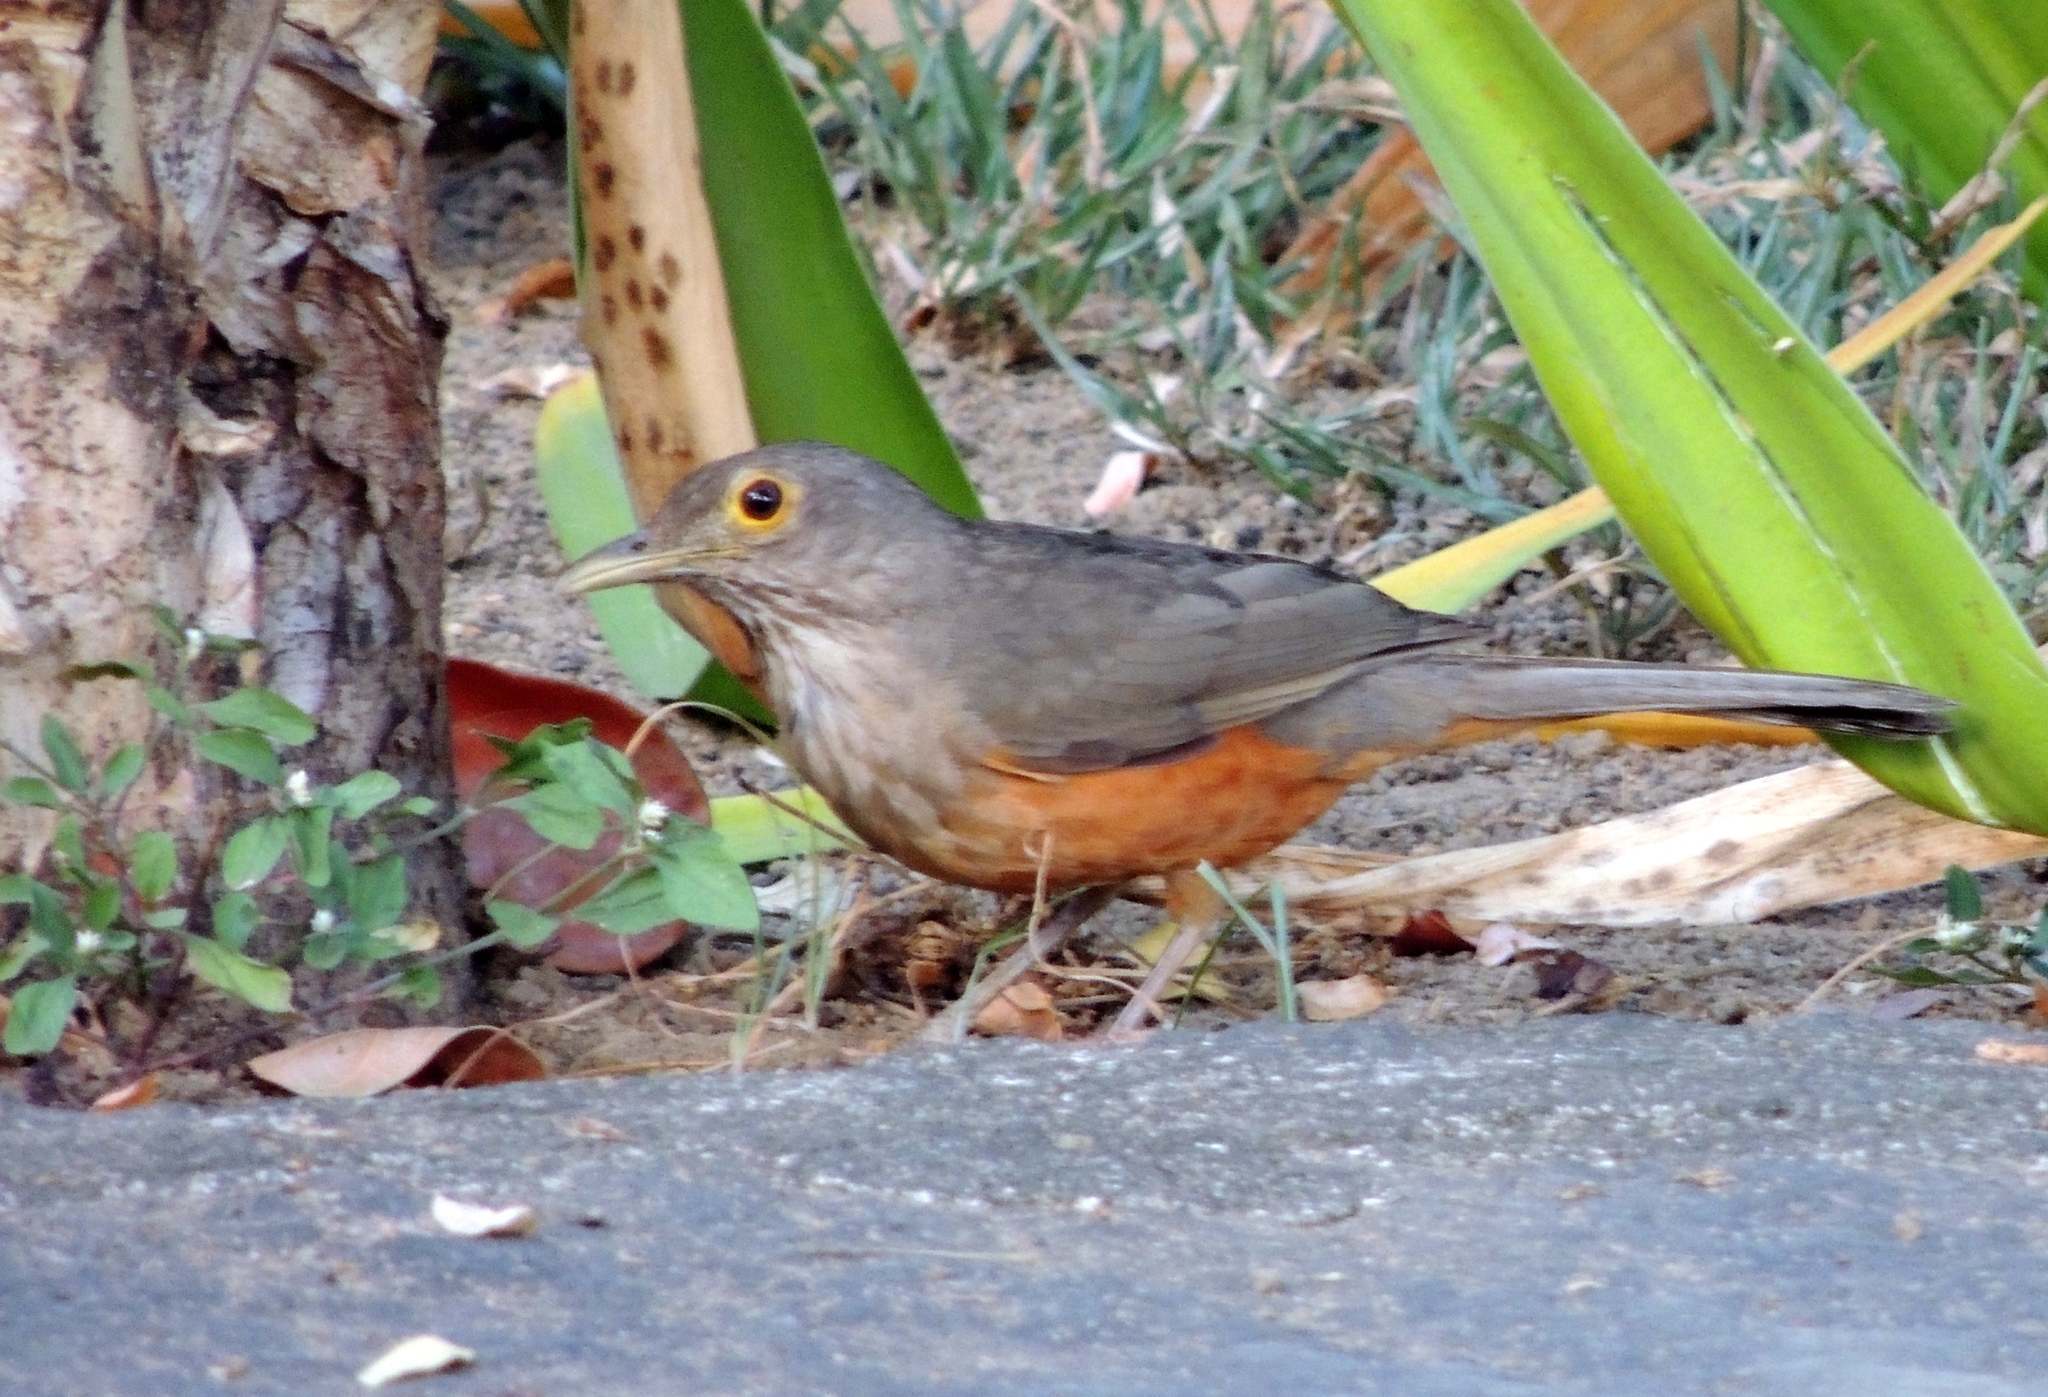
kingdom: Animalia
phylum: Chordata
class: Aves
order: Passeriformes
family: Turdidae
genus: Turdus
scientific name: Turdus rufiventris
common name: Rufous-bellied thrush
